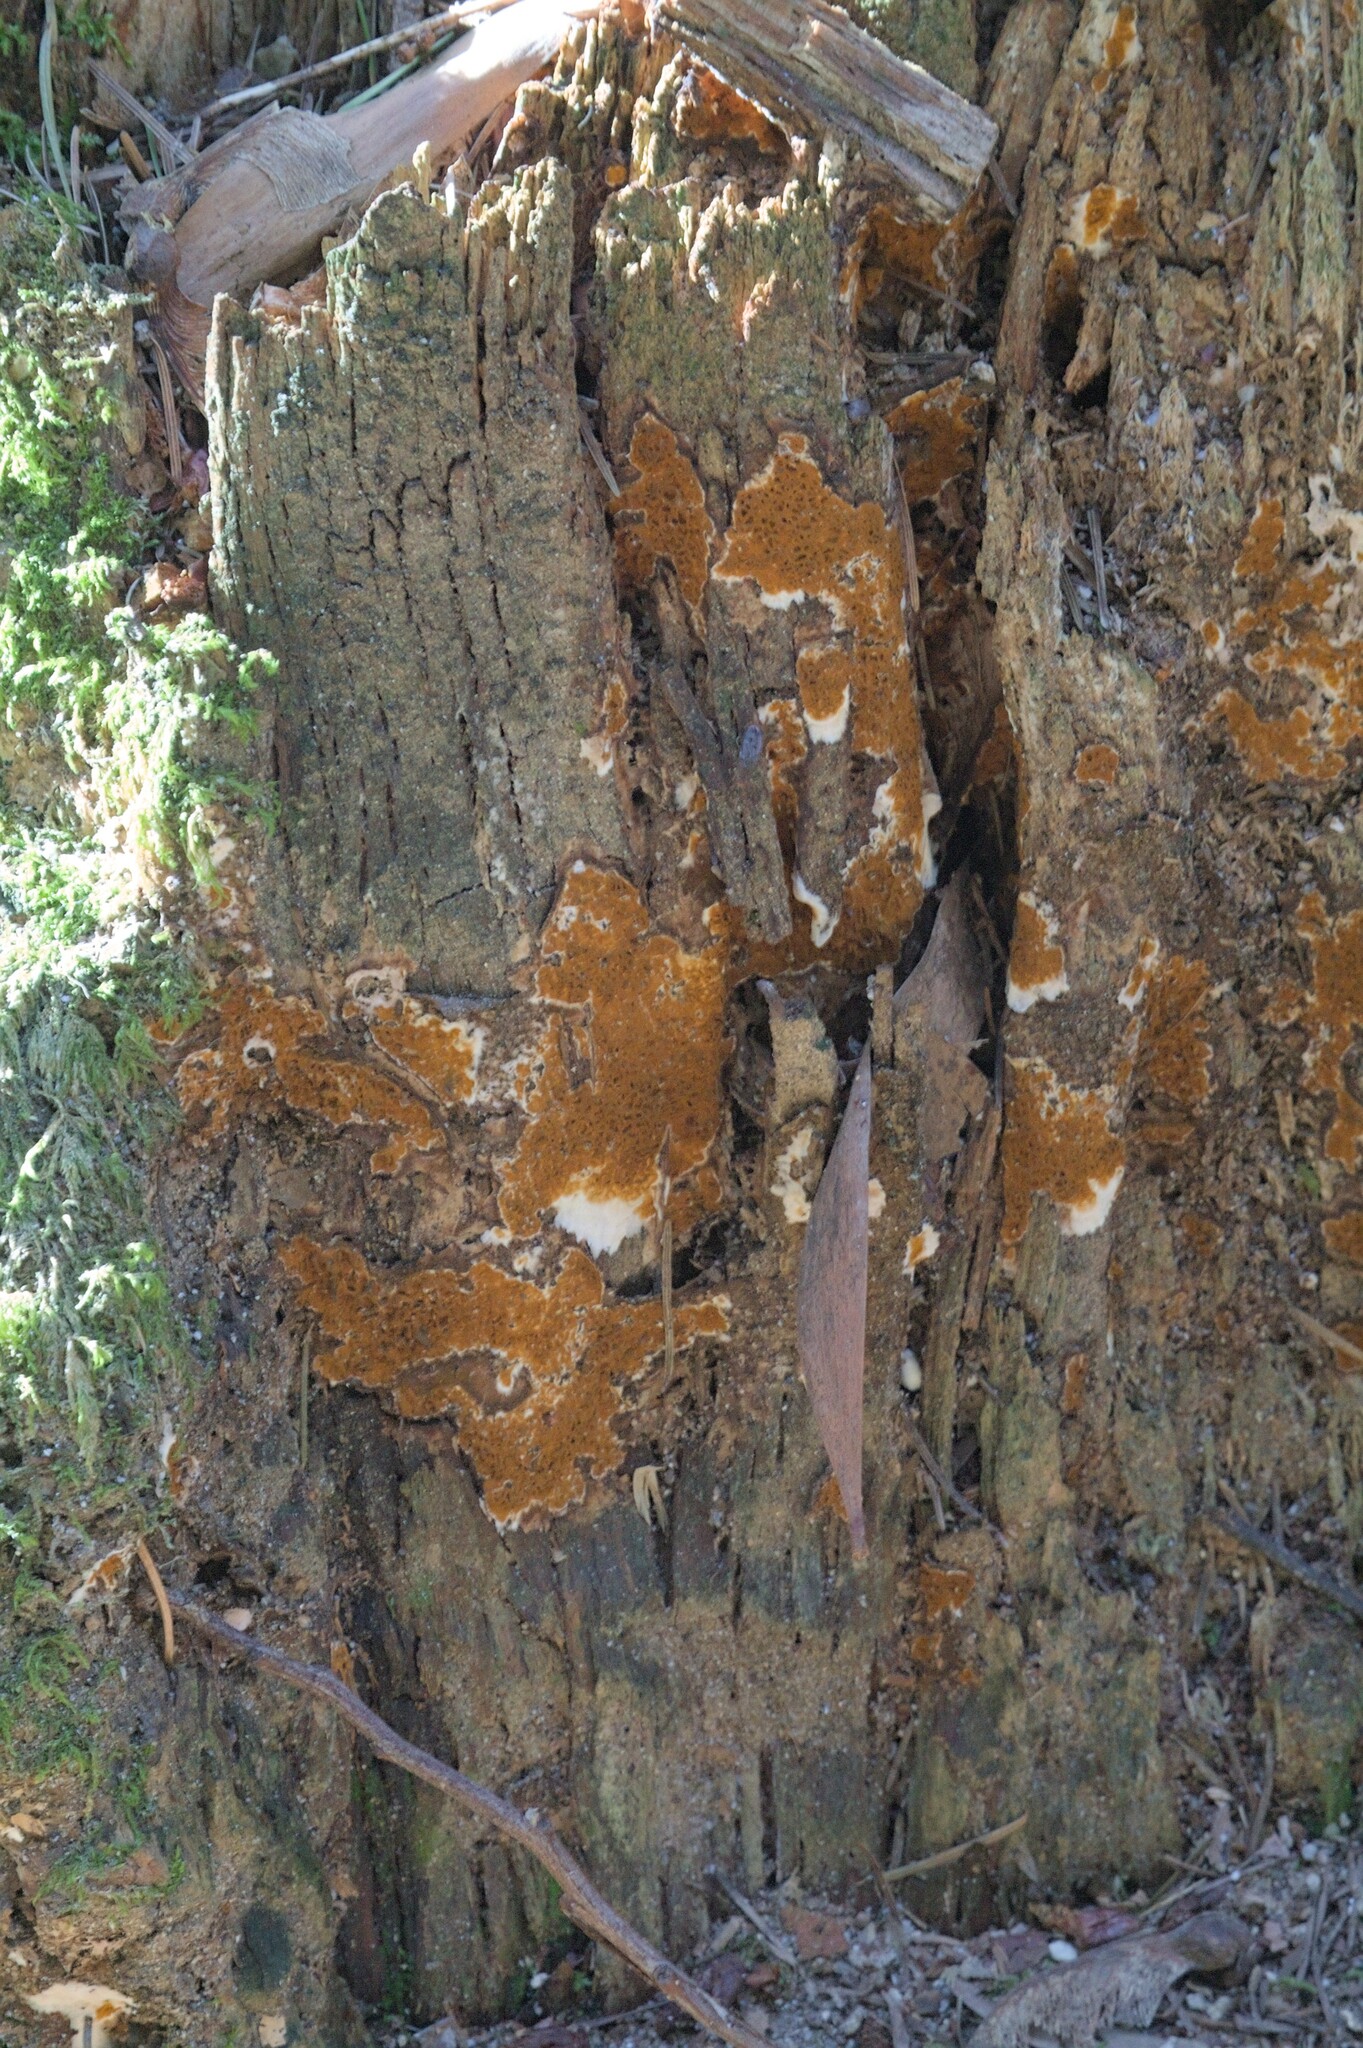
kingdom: Fungi
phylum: Basidiomycota
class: Agaricomycetes
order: Hymenochaetales
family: Hymenochaetaceae
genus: Fuscoporia
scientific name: Fuscoporia torulosa
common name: Tufted bracket
